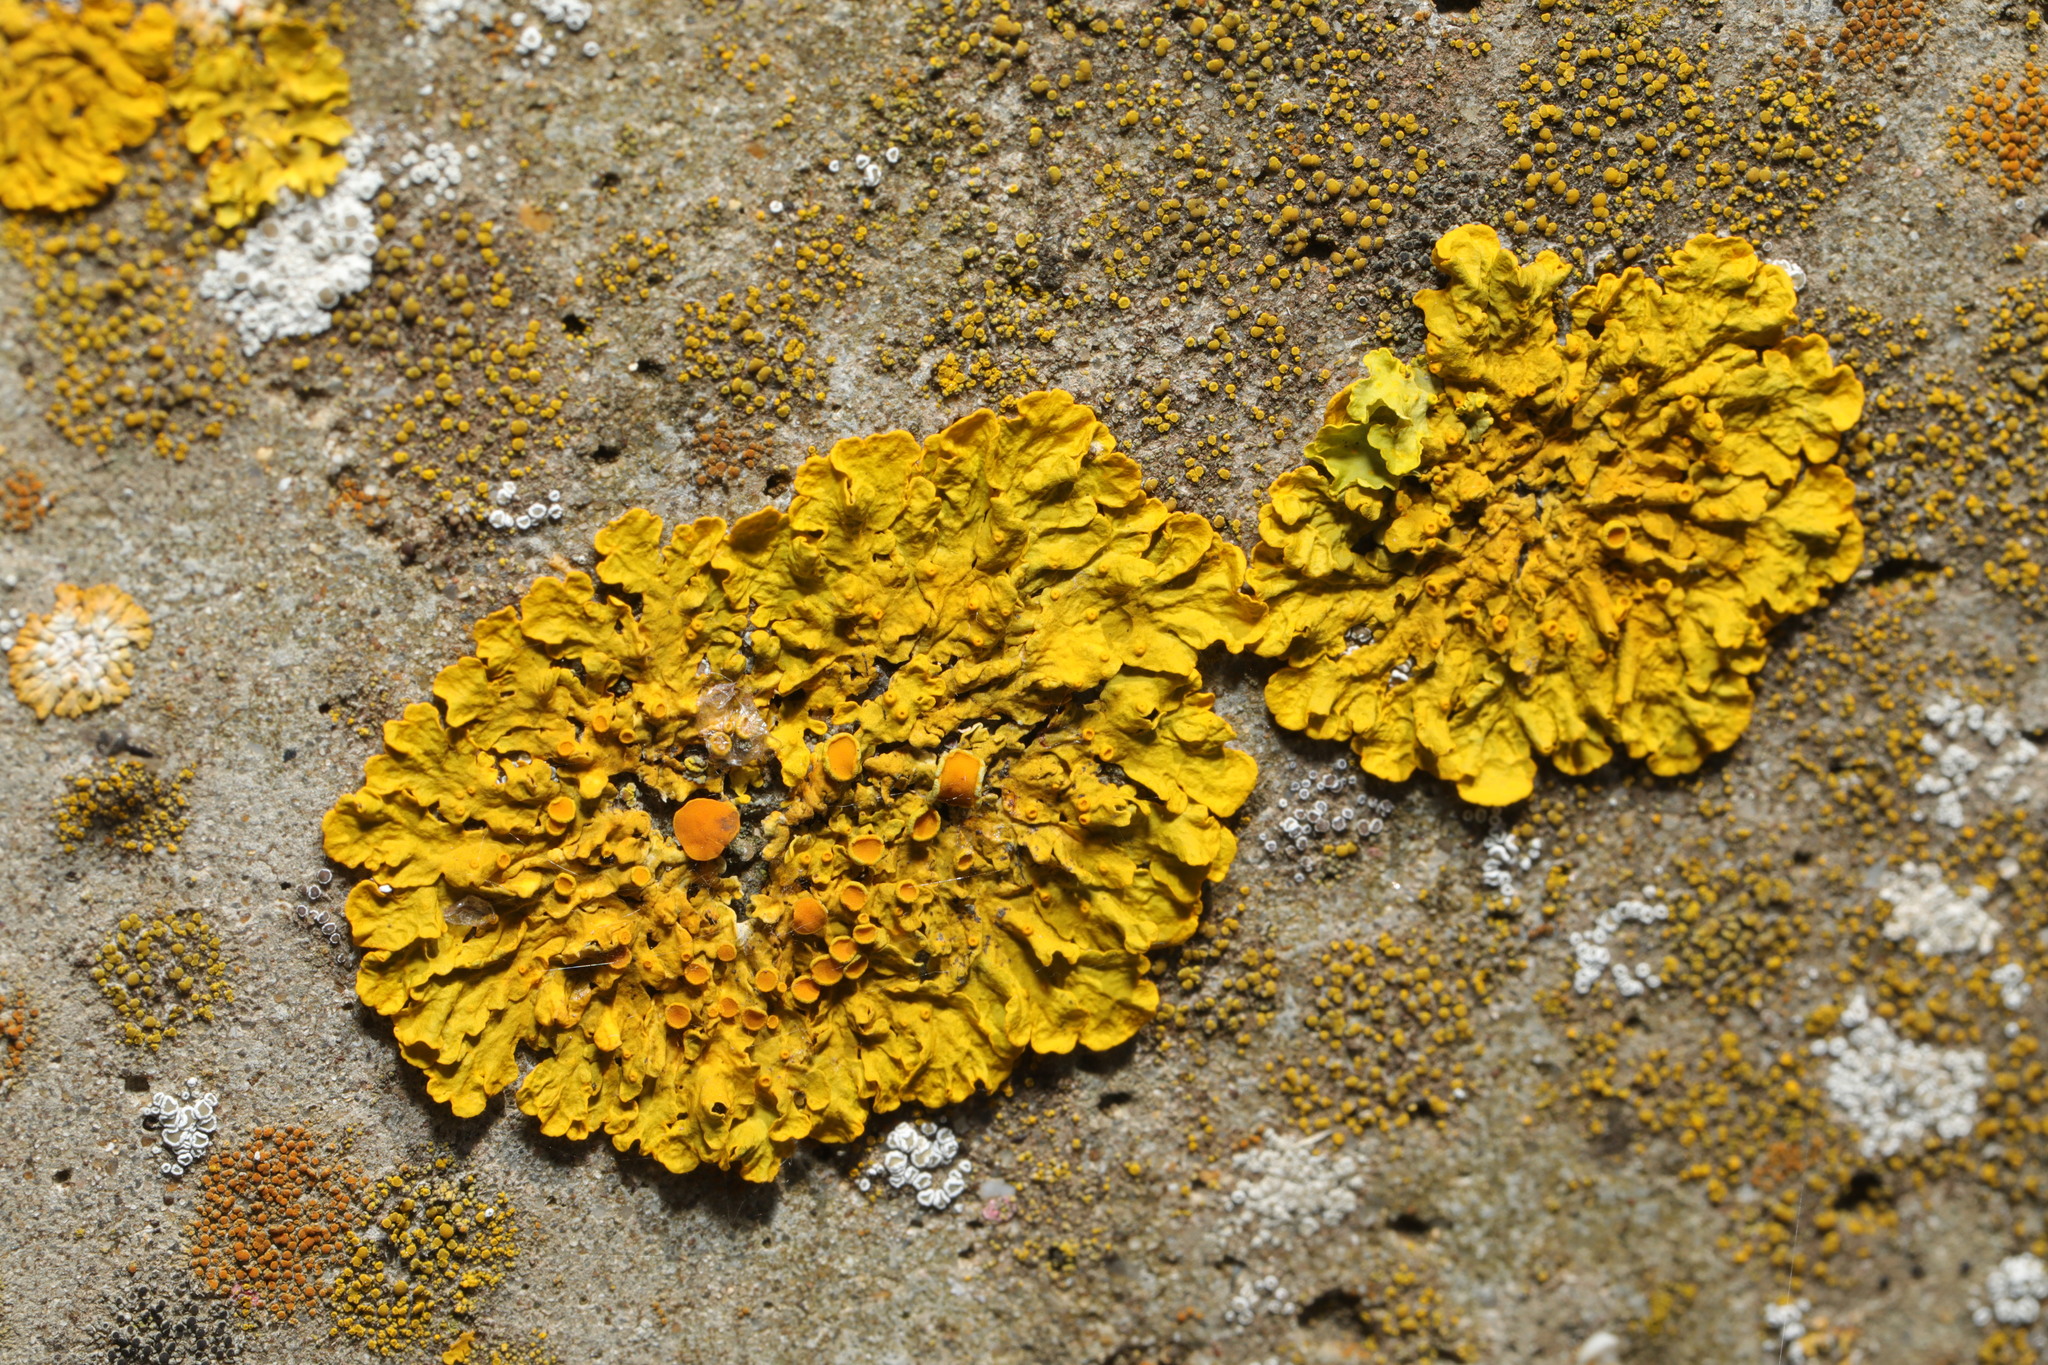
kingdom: Fungi
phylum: Ascomycota
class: Lecanoromycetes
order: Teloschistales
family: Teloschistaceae
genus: Xanthoria
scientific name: Xanthoria parietina
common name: Common orange lichen
